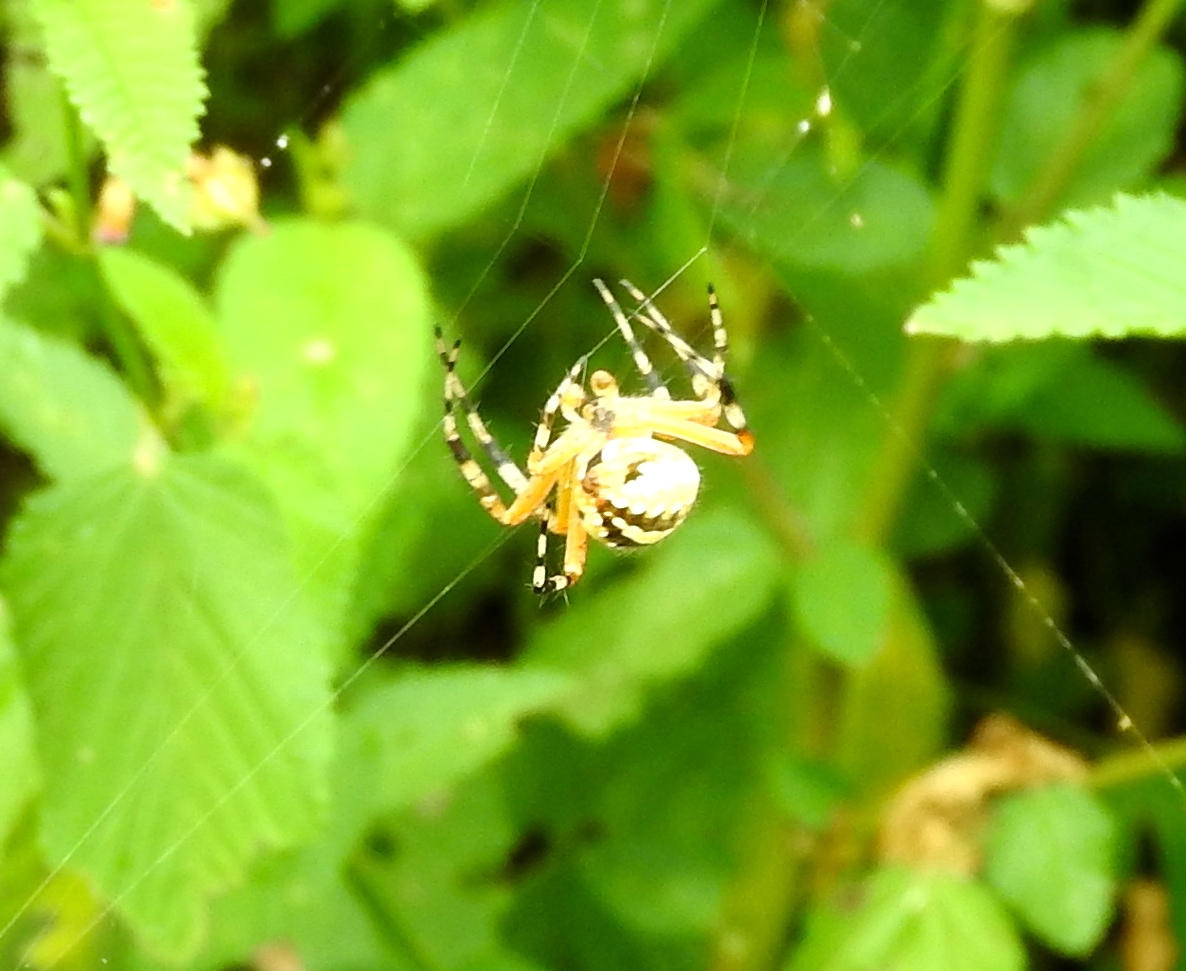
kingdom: Animalia
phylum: Arthropoda
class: Arachnida
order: Araneae
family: Araneidae
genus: Neoscona
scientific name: Neoscona
